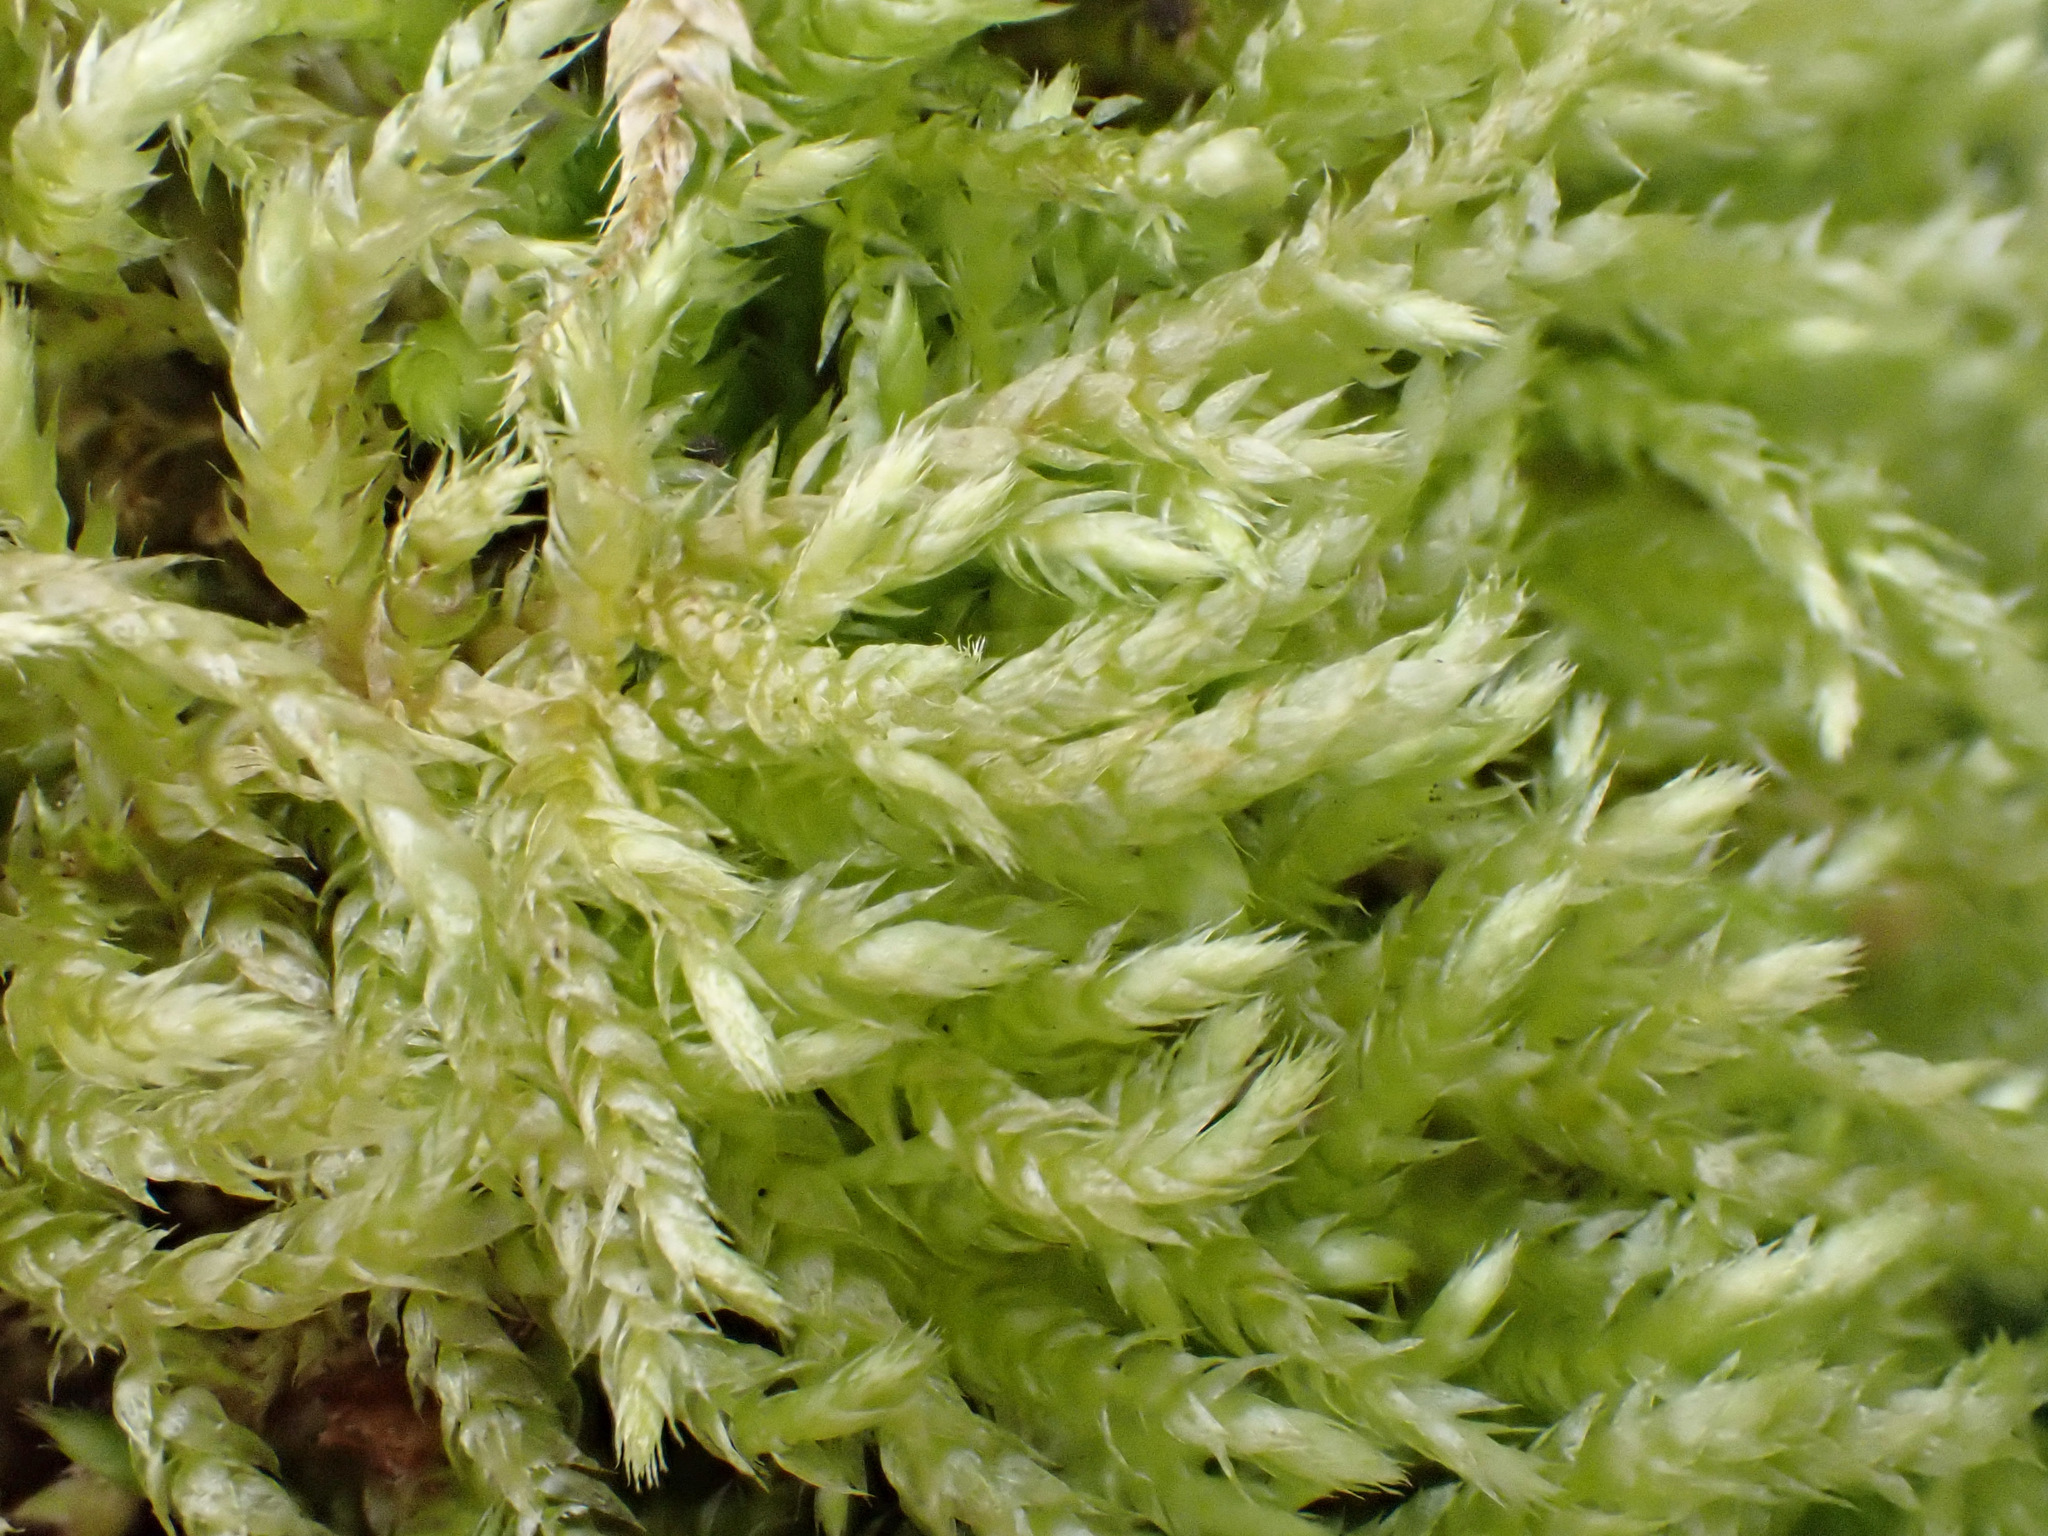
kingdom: Plantae
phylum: Bryophyta
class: Bryopsida
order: Hypnales
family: Brachytheciaceae
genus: Brachythecium
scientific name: Brachythecium rutabulum
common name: Rough-stalked feather-moss
